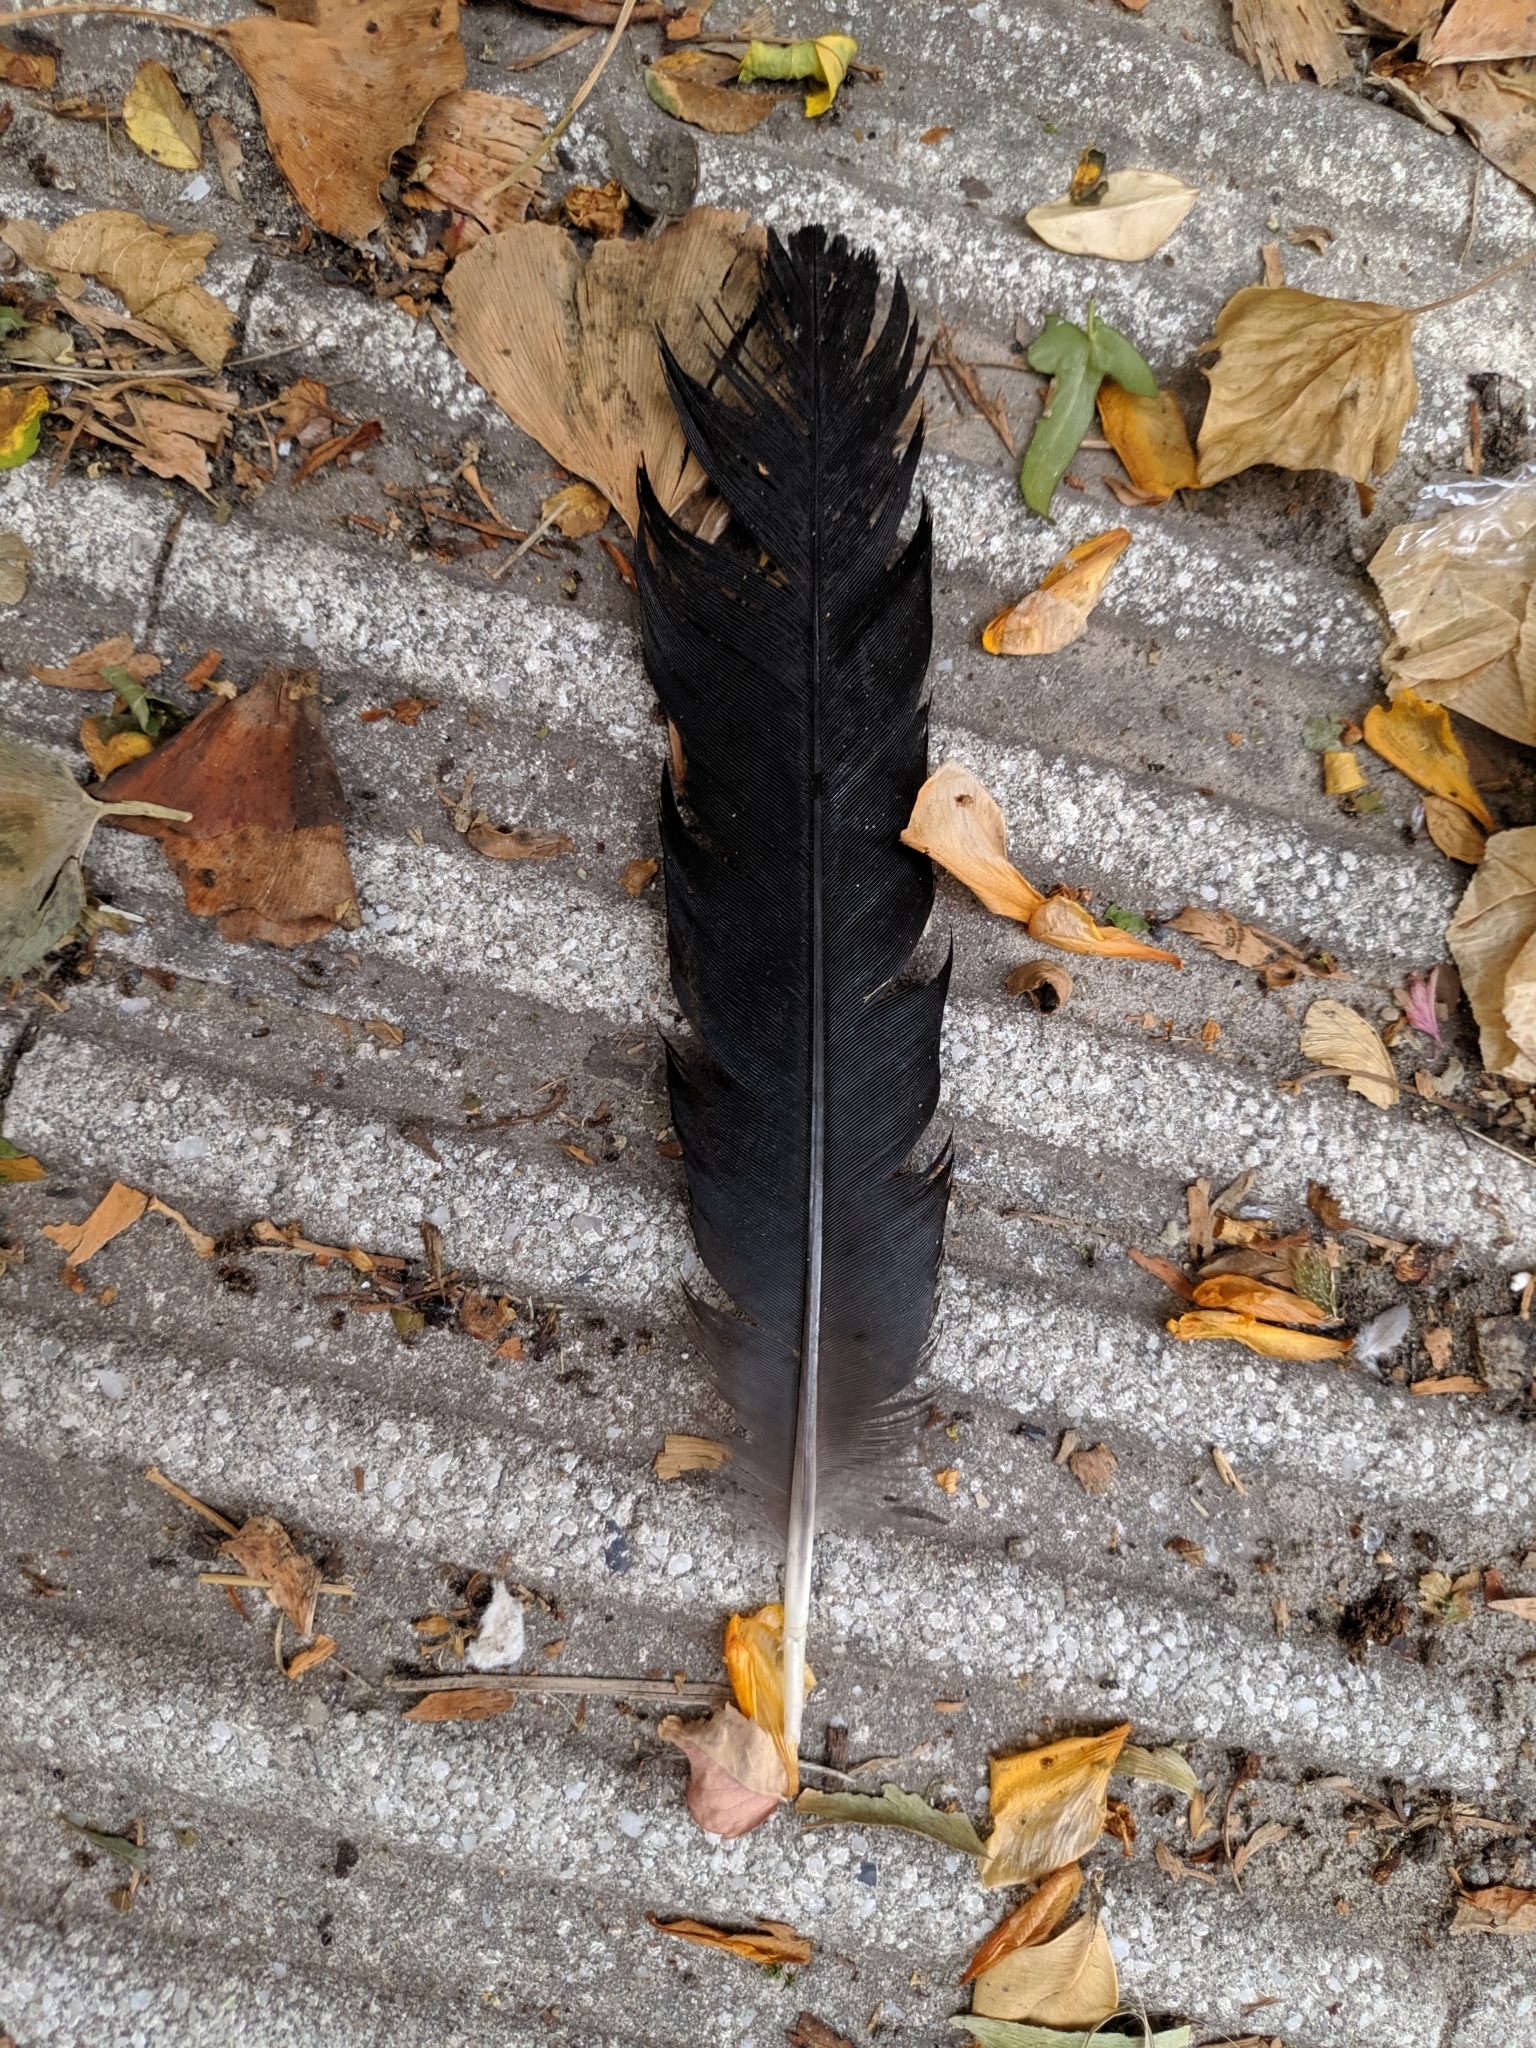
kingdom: Animalia
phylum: Chordata
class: Aves
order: Passeriformes
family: Corvidae
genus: Corvus
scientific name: Corvus corone
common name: Carrion crow
